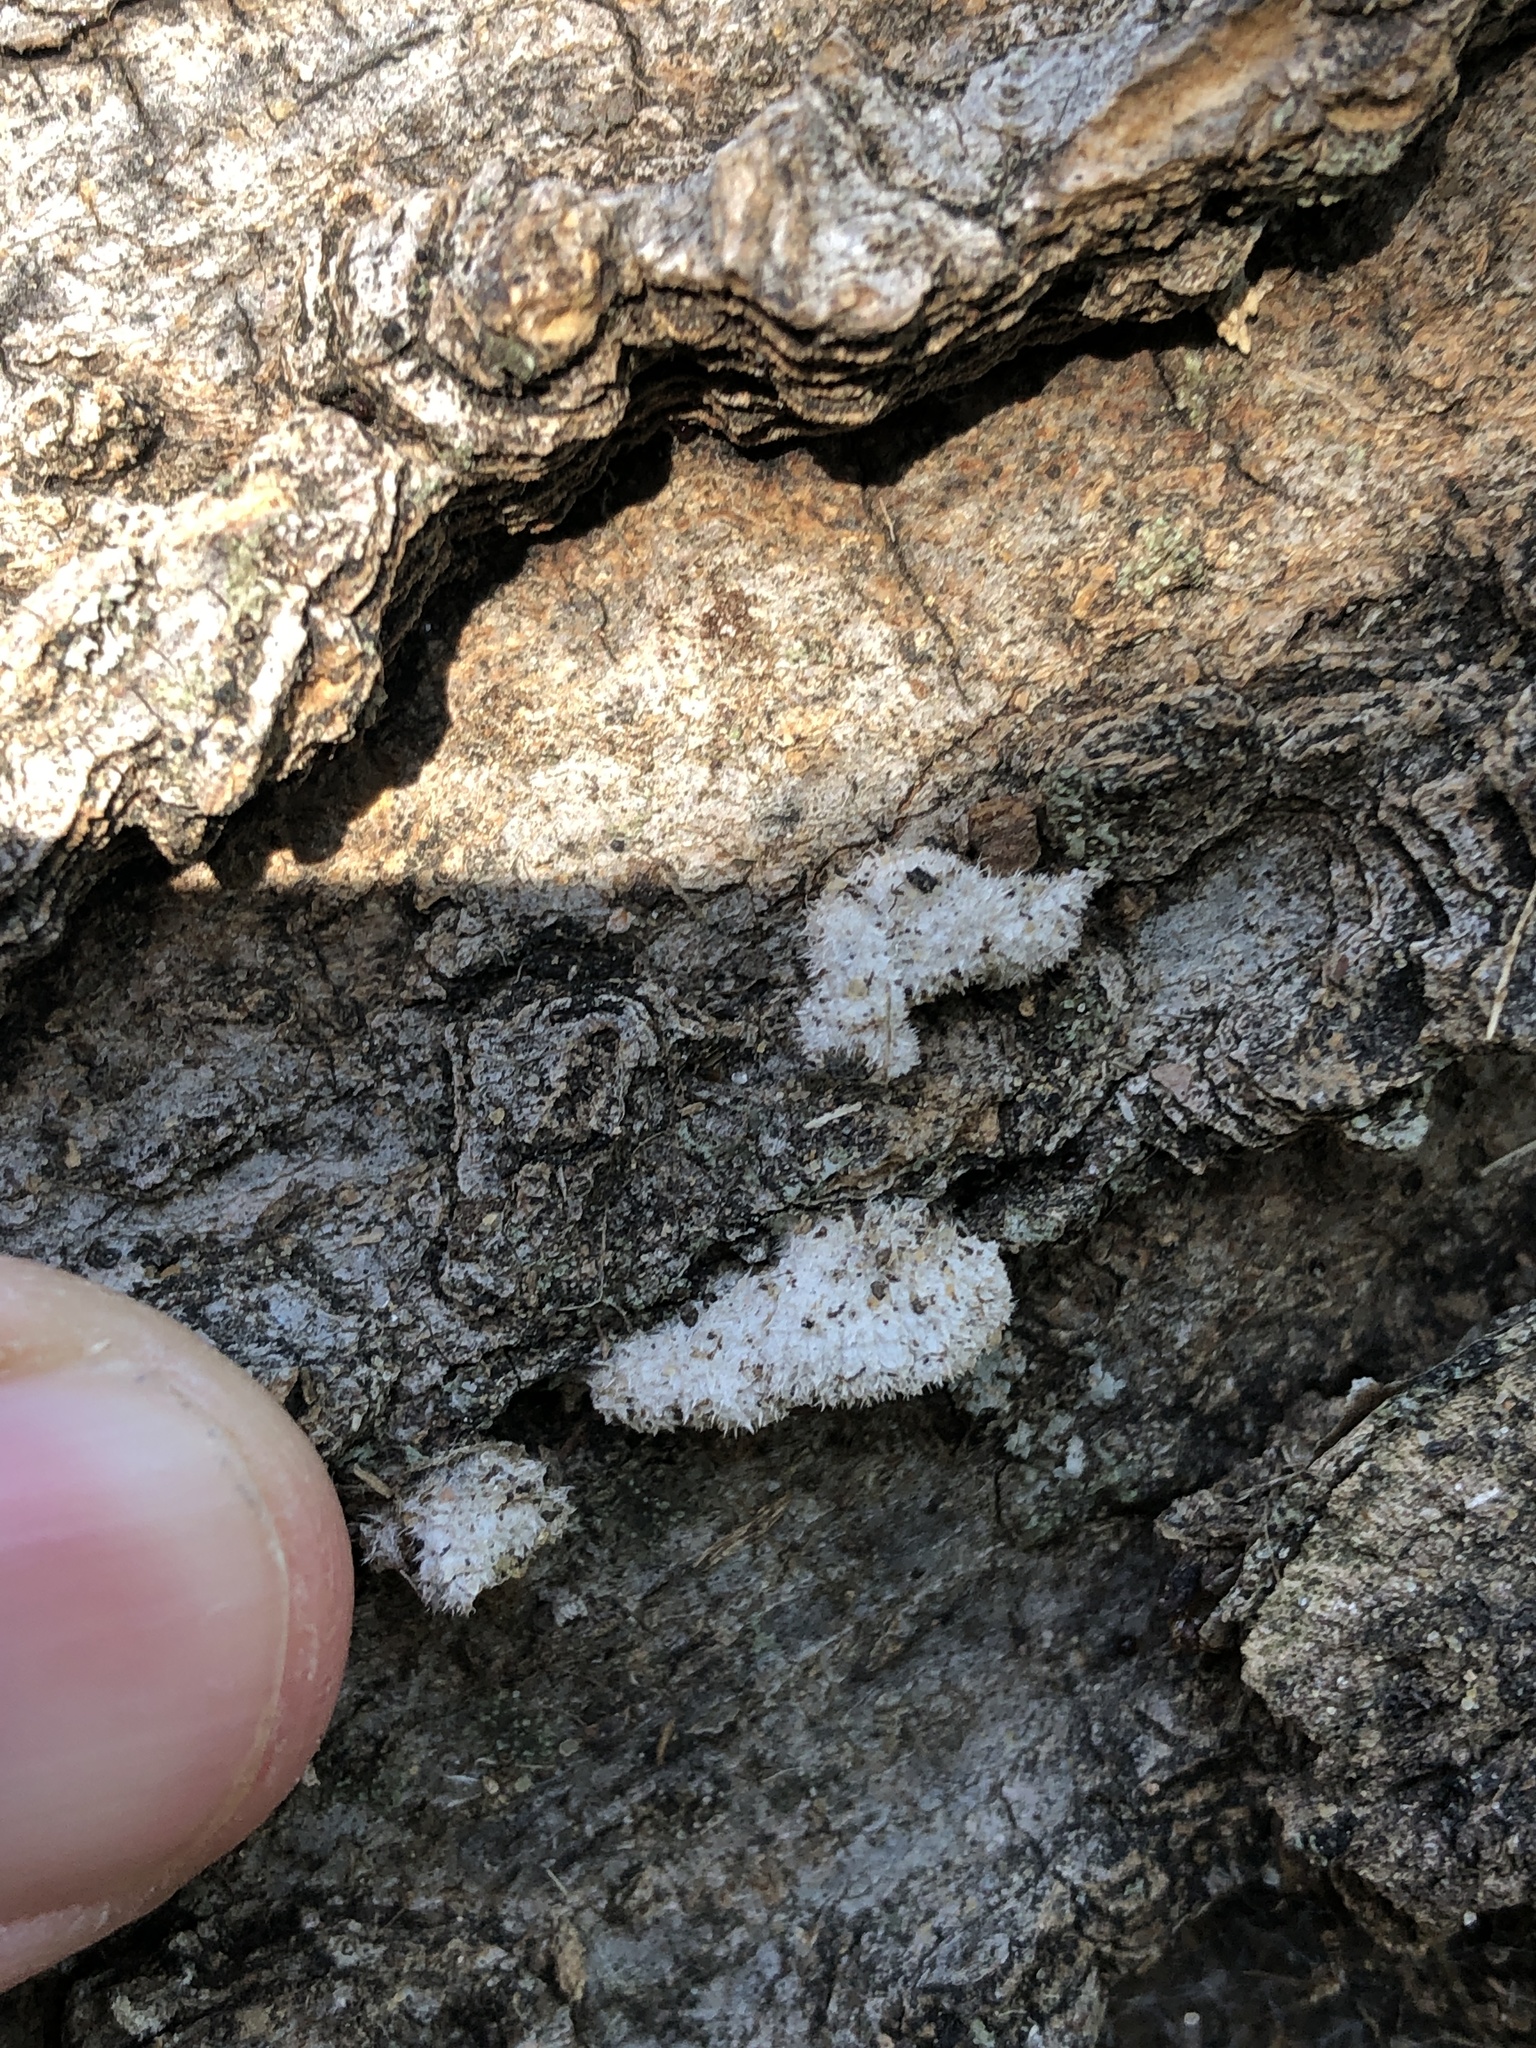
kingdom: Fungi
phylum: Basidiomycota
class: Agaricomycetes
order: Agaricales
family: Schizophyllaceae
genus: Schizophyllum
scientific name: Schizophyllum commune
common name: Common porecrust
